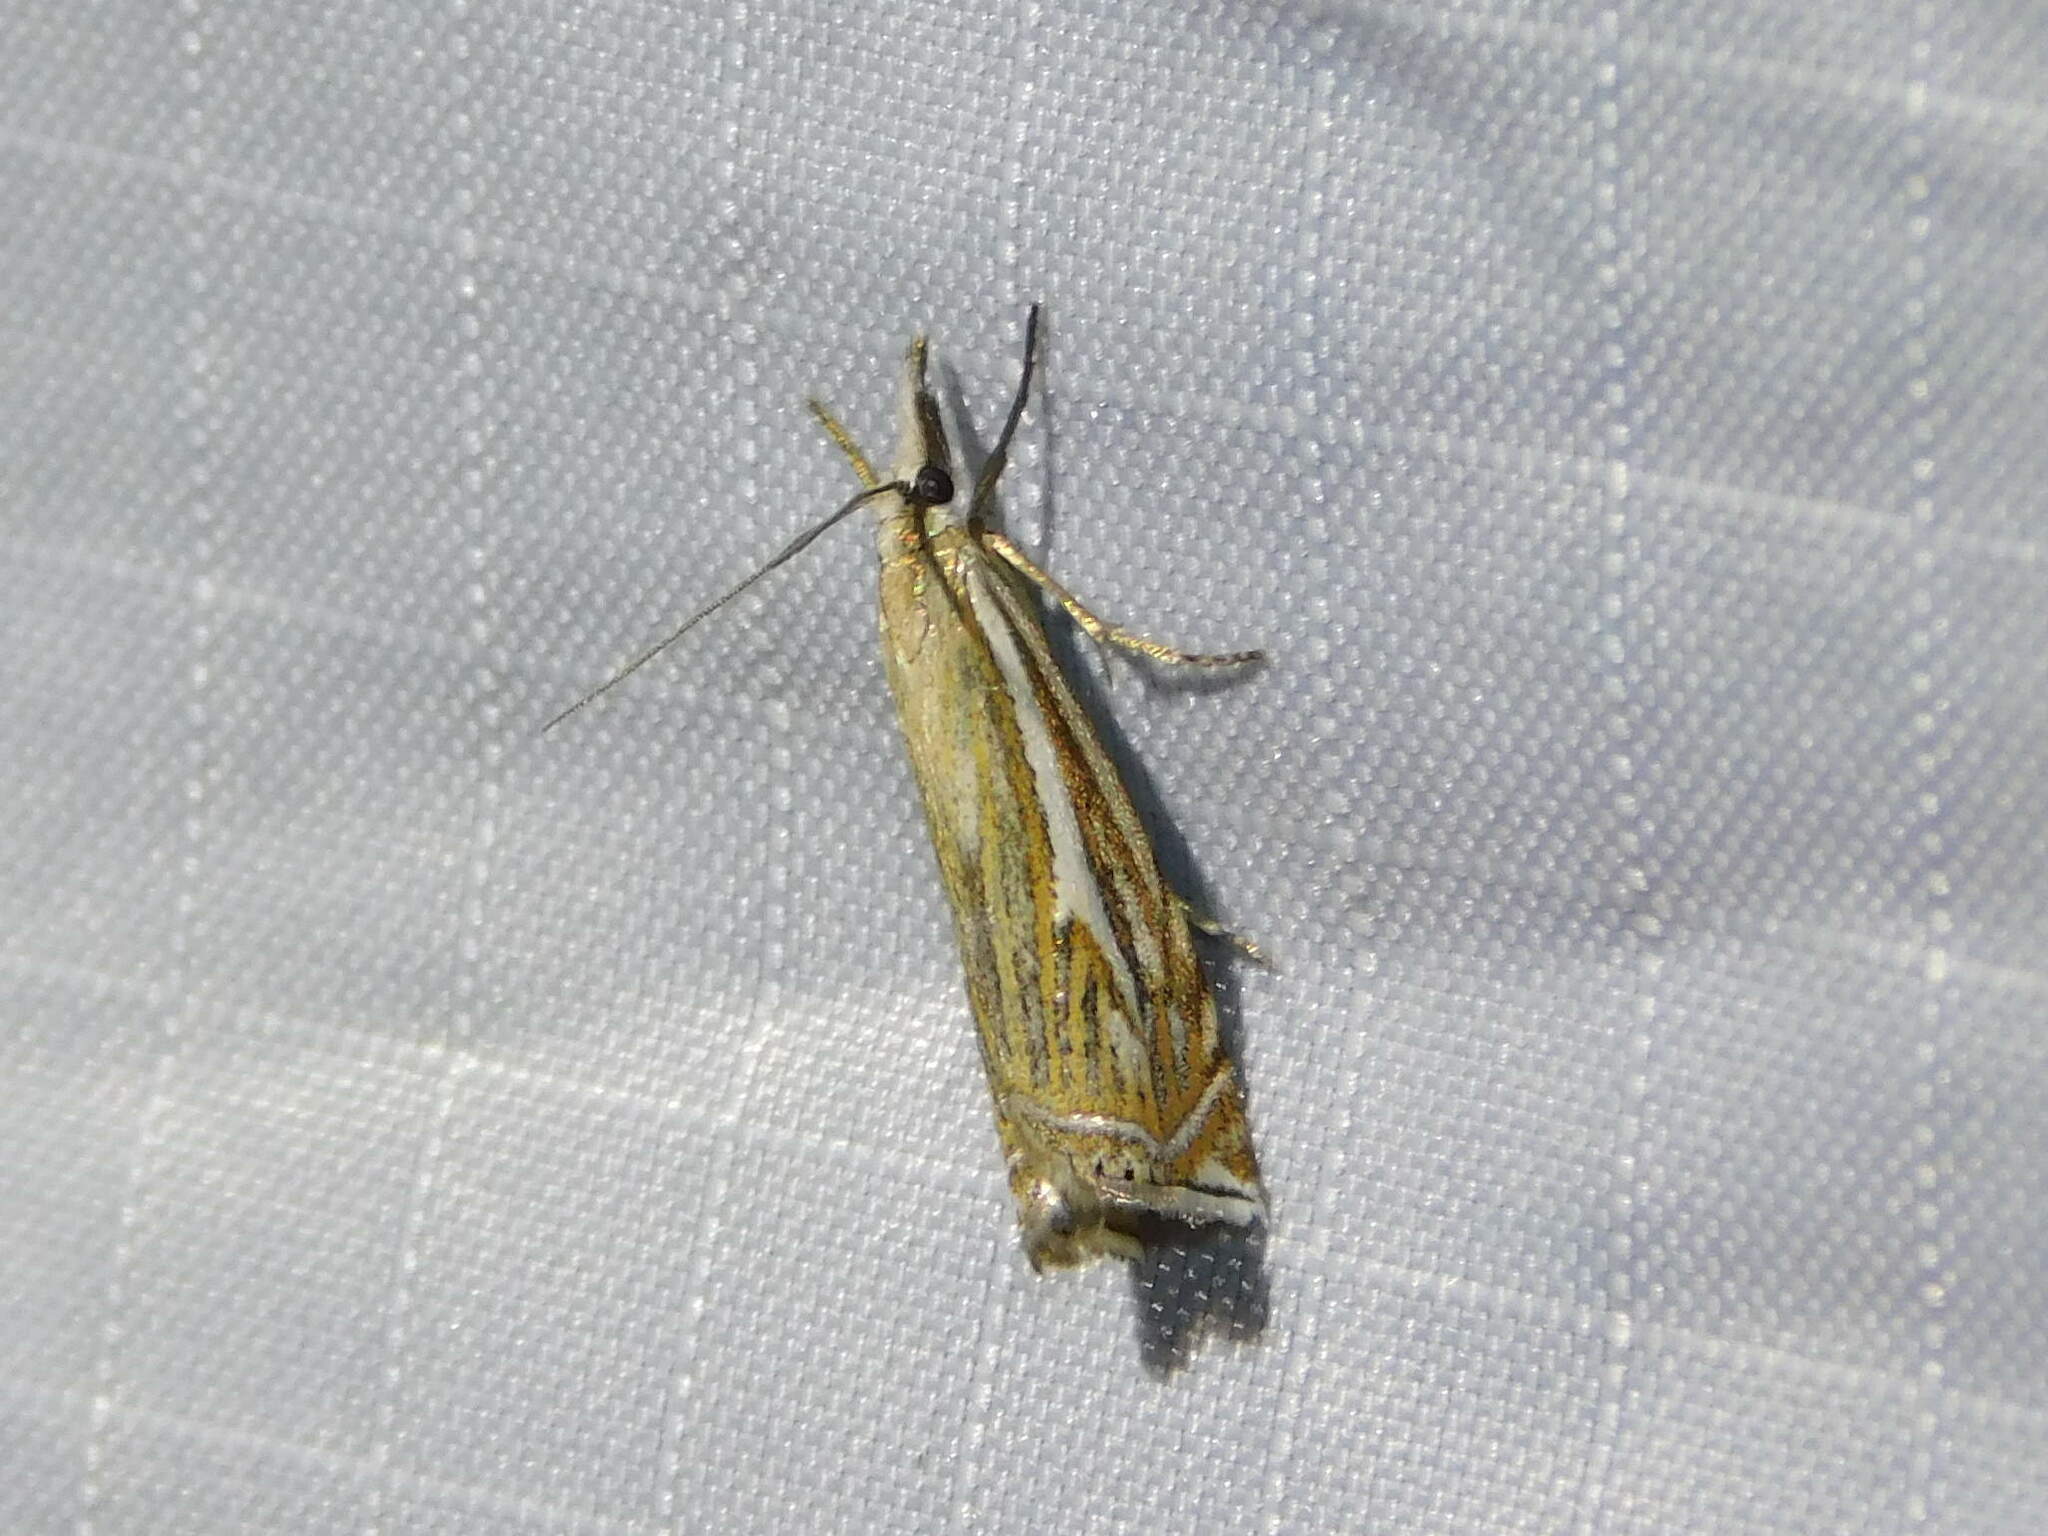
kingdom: Animalia
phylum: Arthropoda
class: Insecta
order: Lepidoptera
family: Crambidae
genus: Crambus
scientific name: Crambus nemorella
